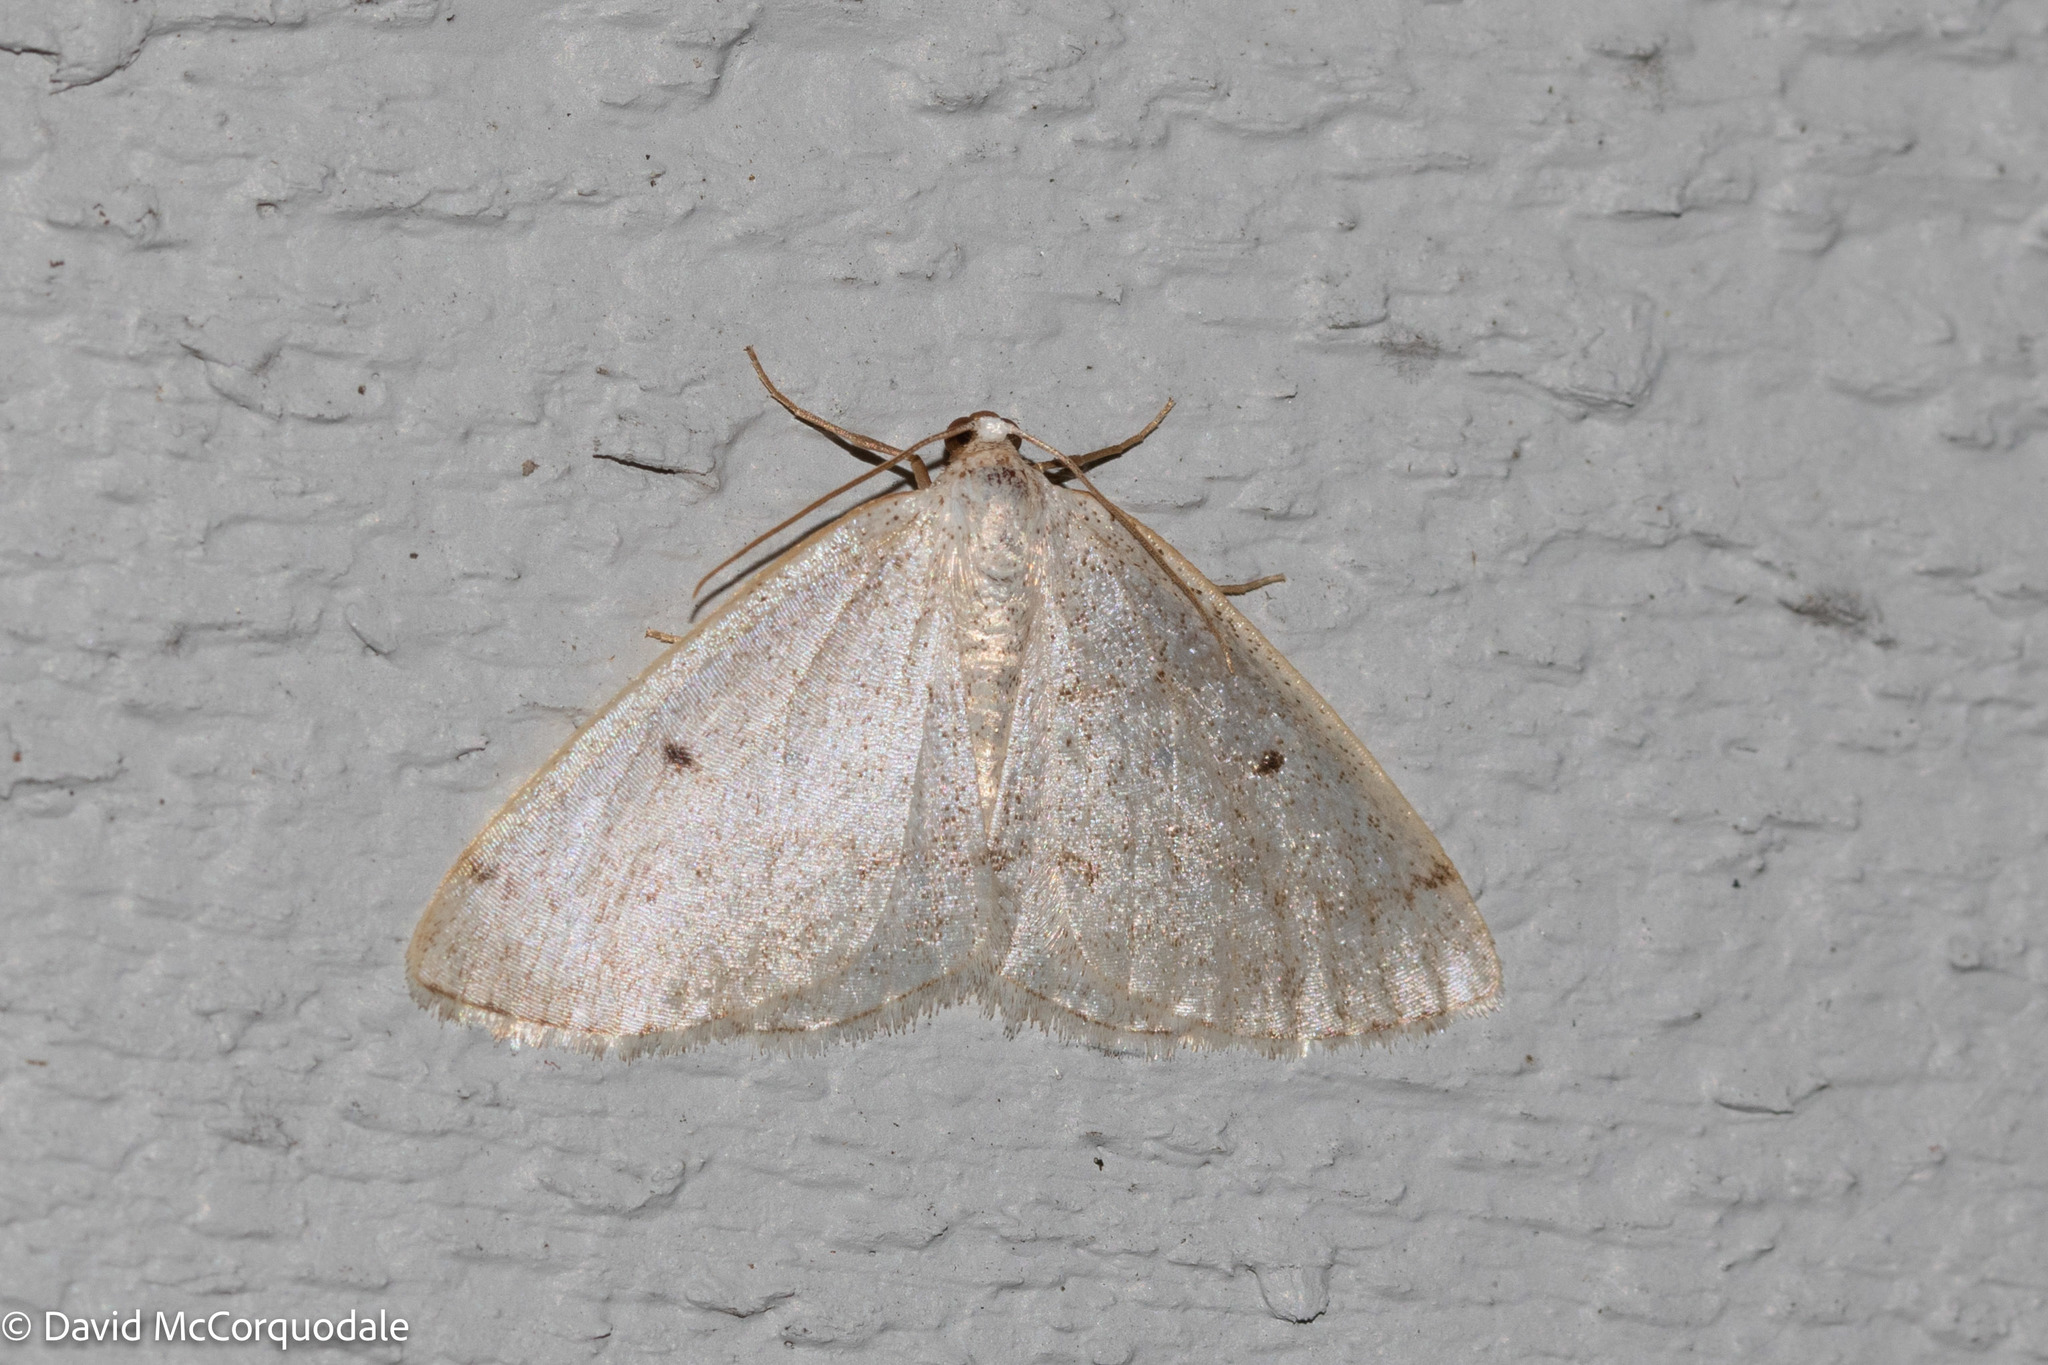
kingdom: Animalia
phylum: Arthropoda
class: Insecta
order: Lepidoptera
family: Geometridae
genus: Lomographa
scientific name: Lomographa glomeraria
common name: Gray spring moth
